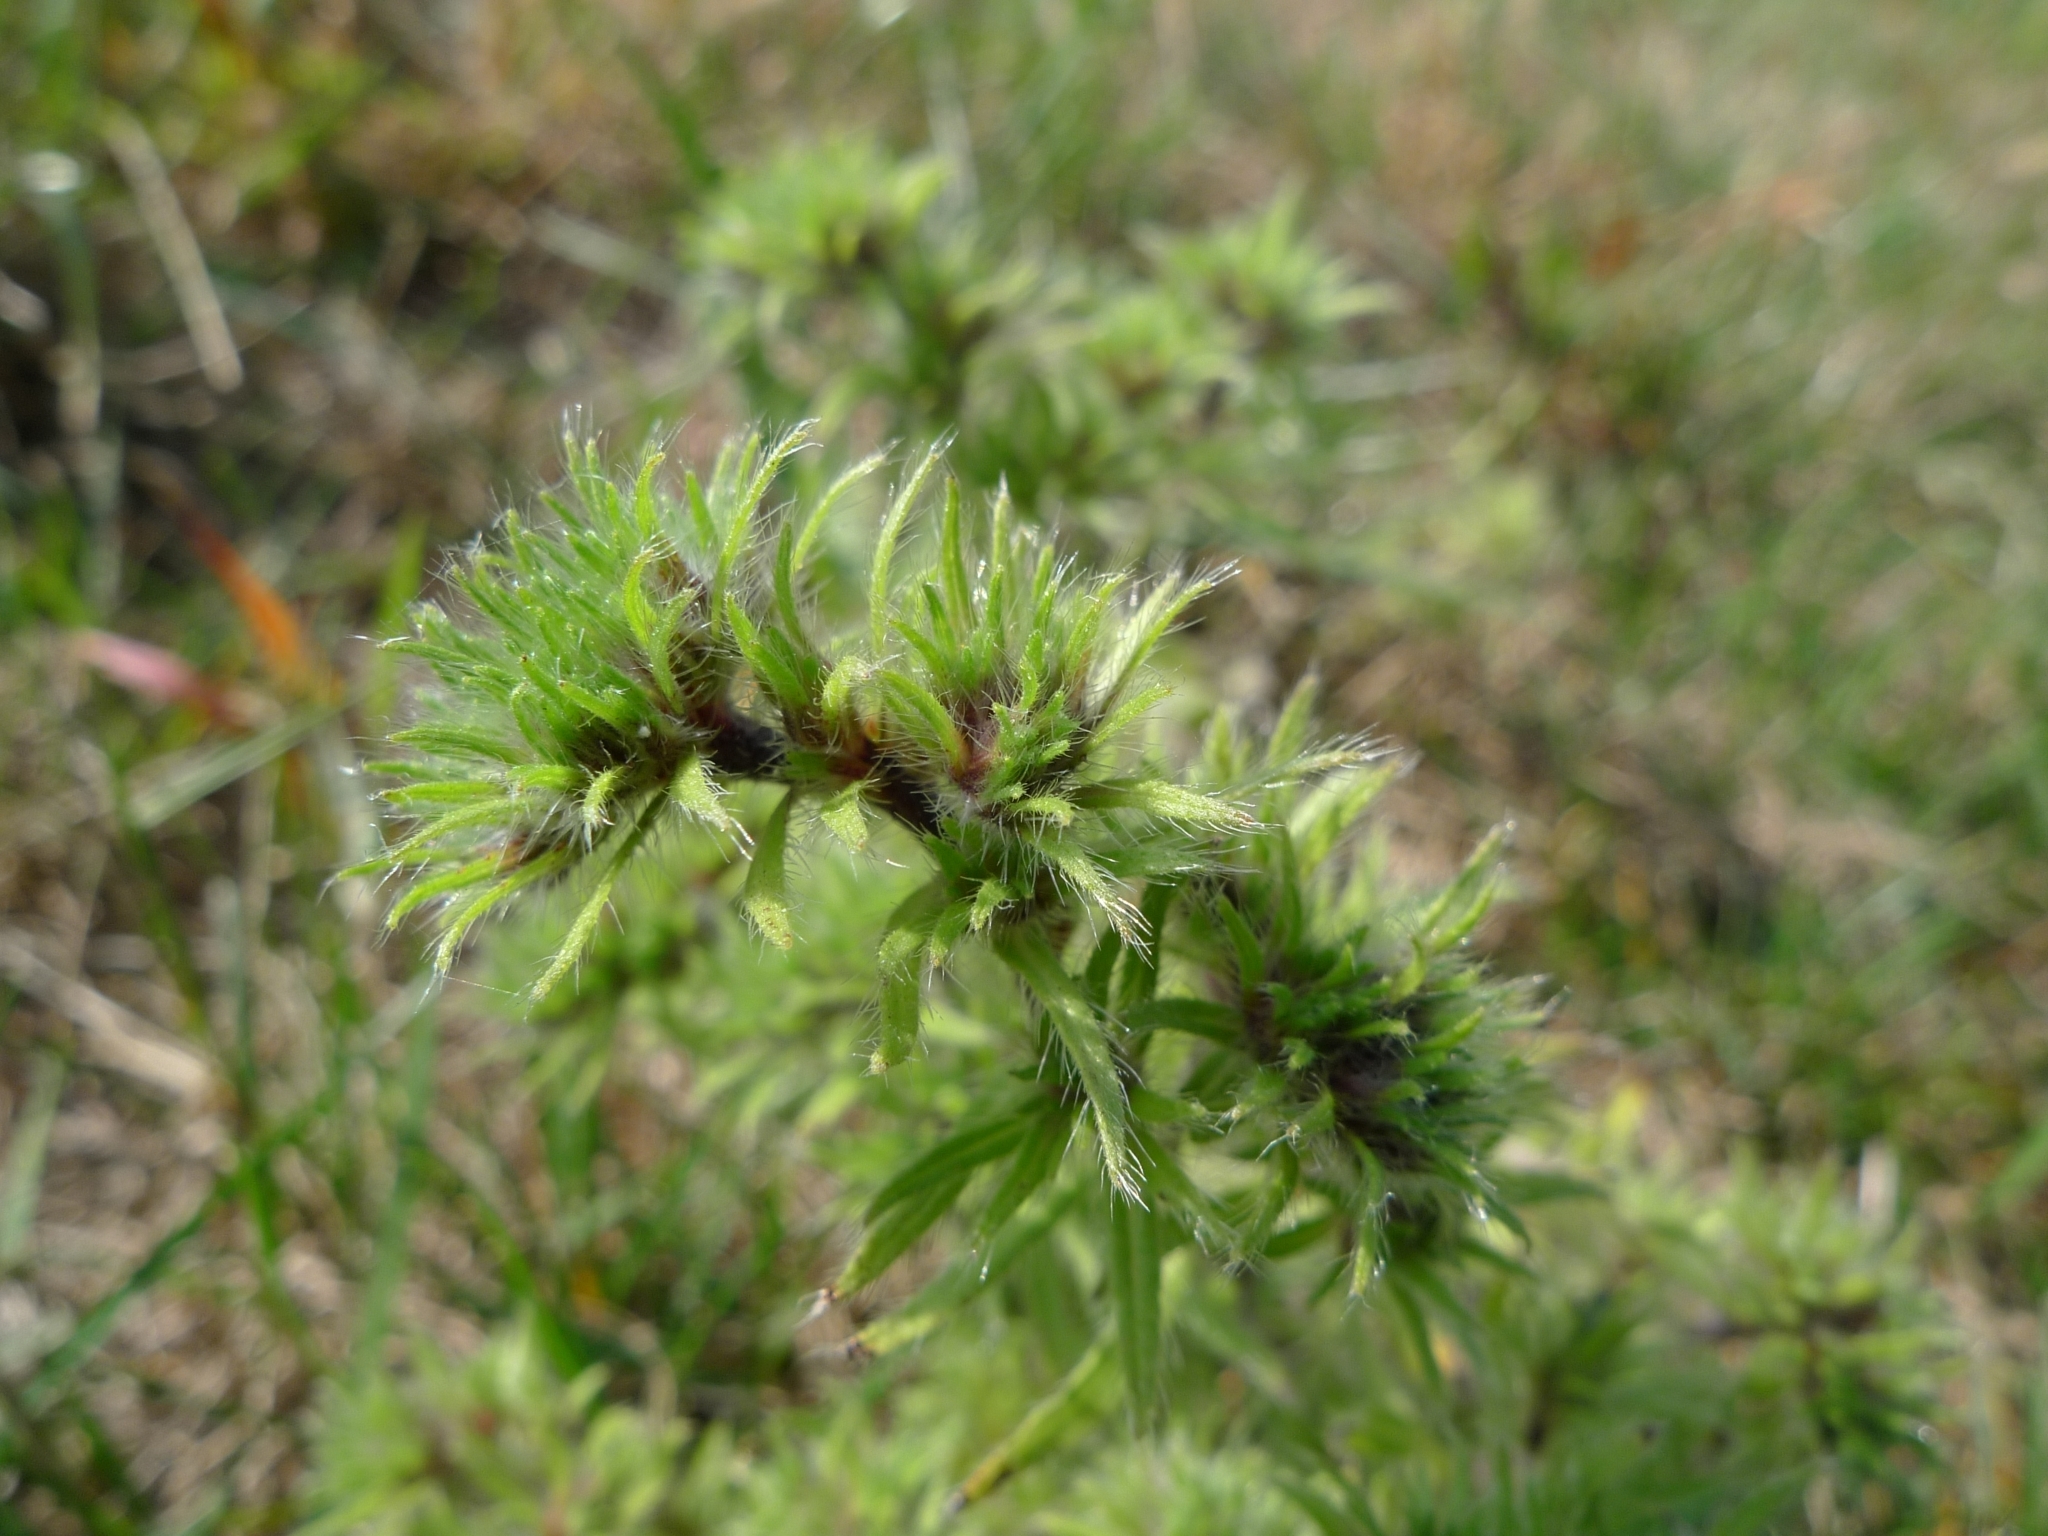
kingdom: Plantae
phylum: Tracheophyta
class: Magnoliopsida
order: Boraginales
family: Boraginaceae
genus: Echium
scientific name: Echium vulgare
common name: Common viper's bugloss
